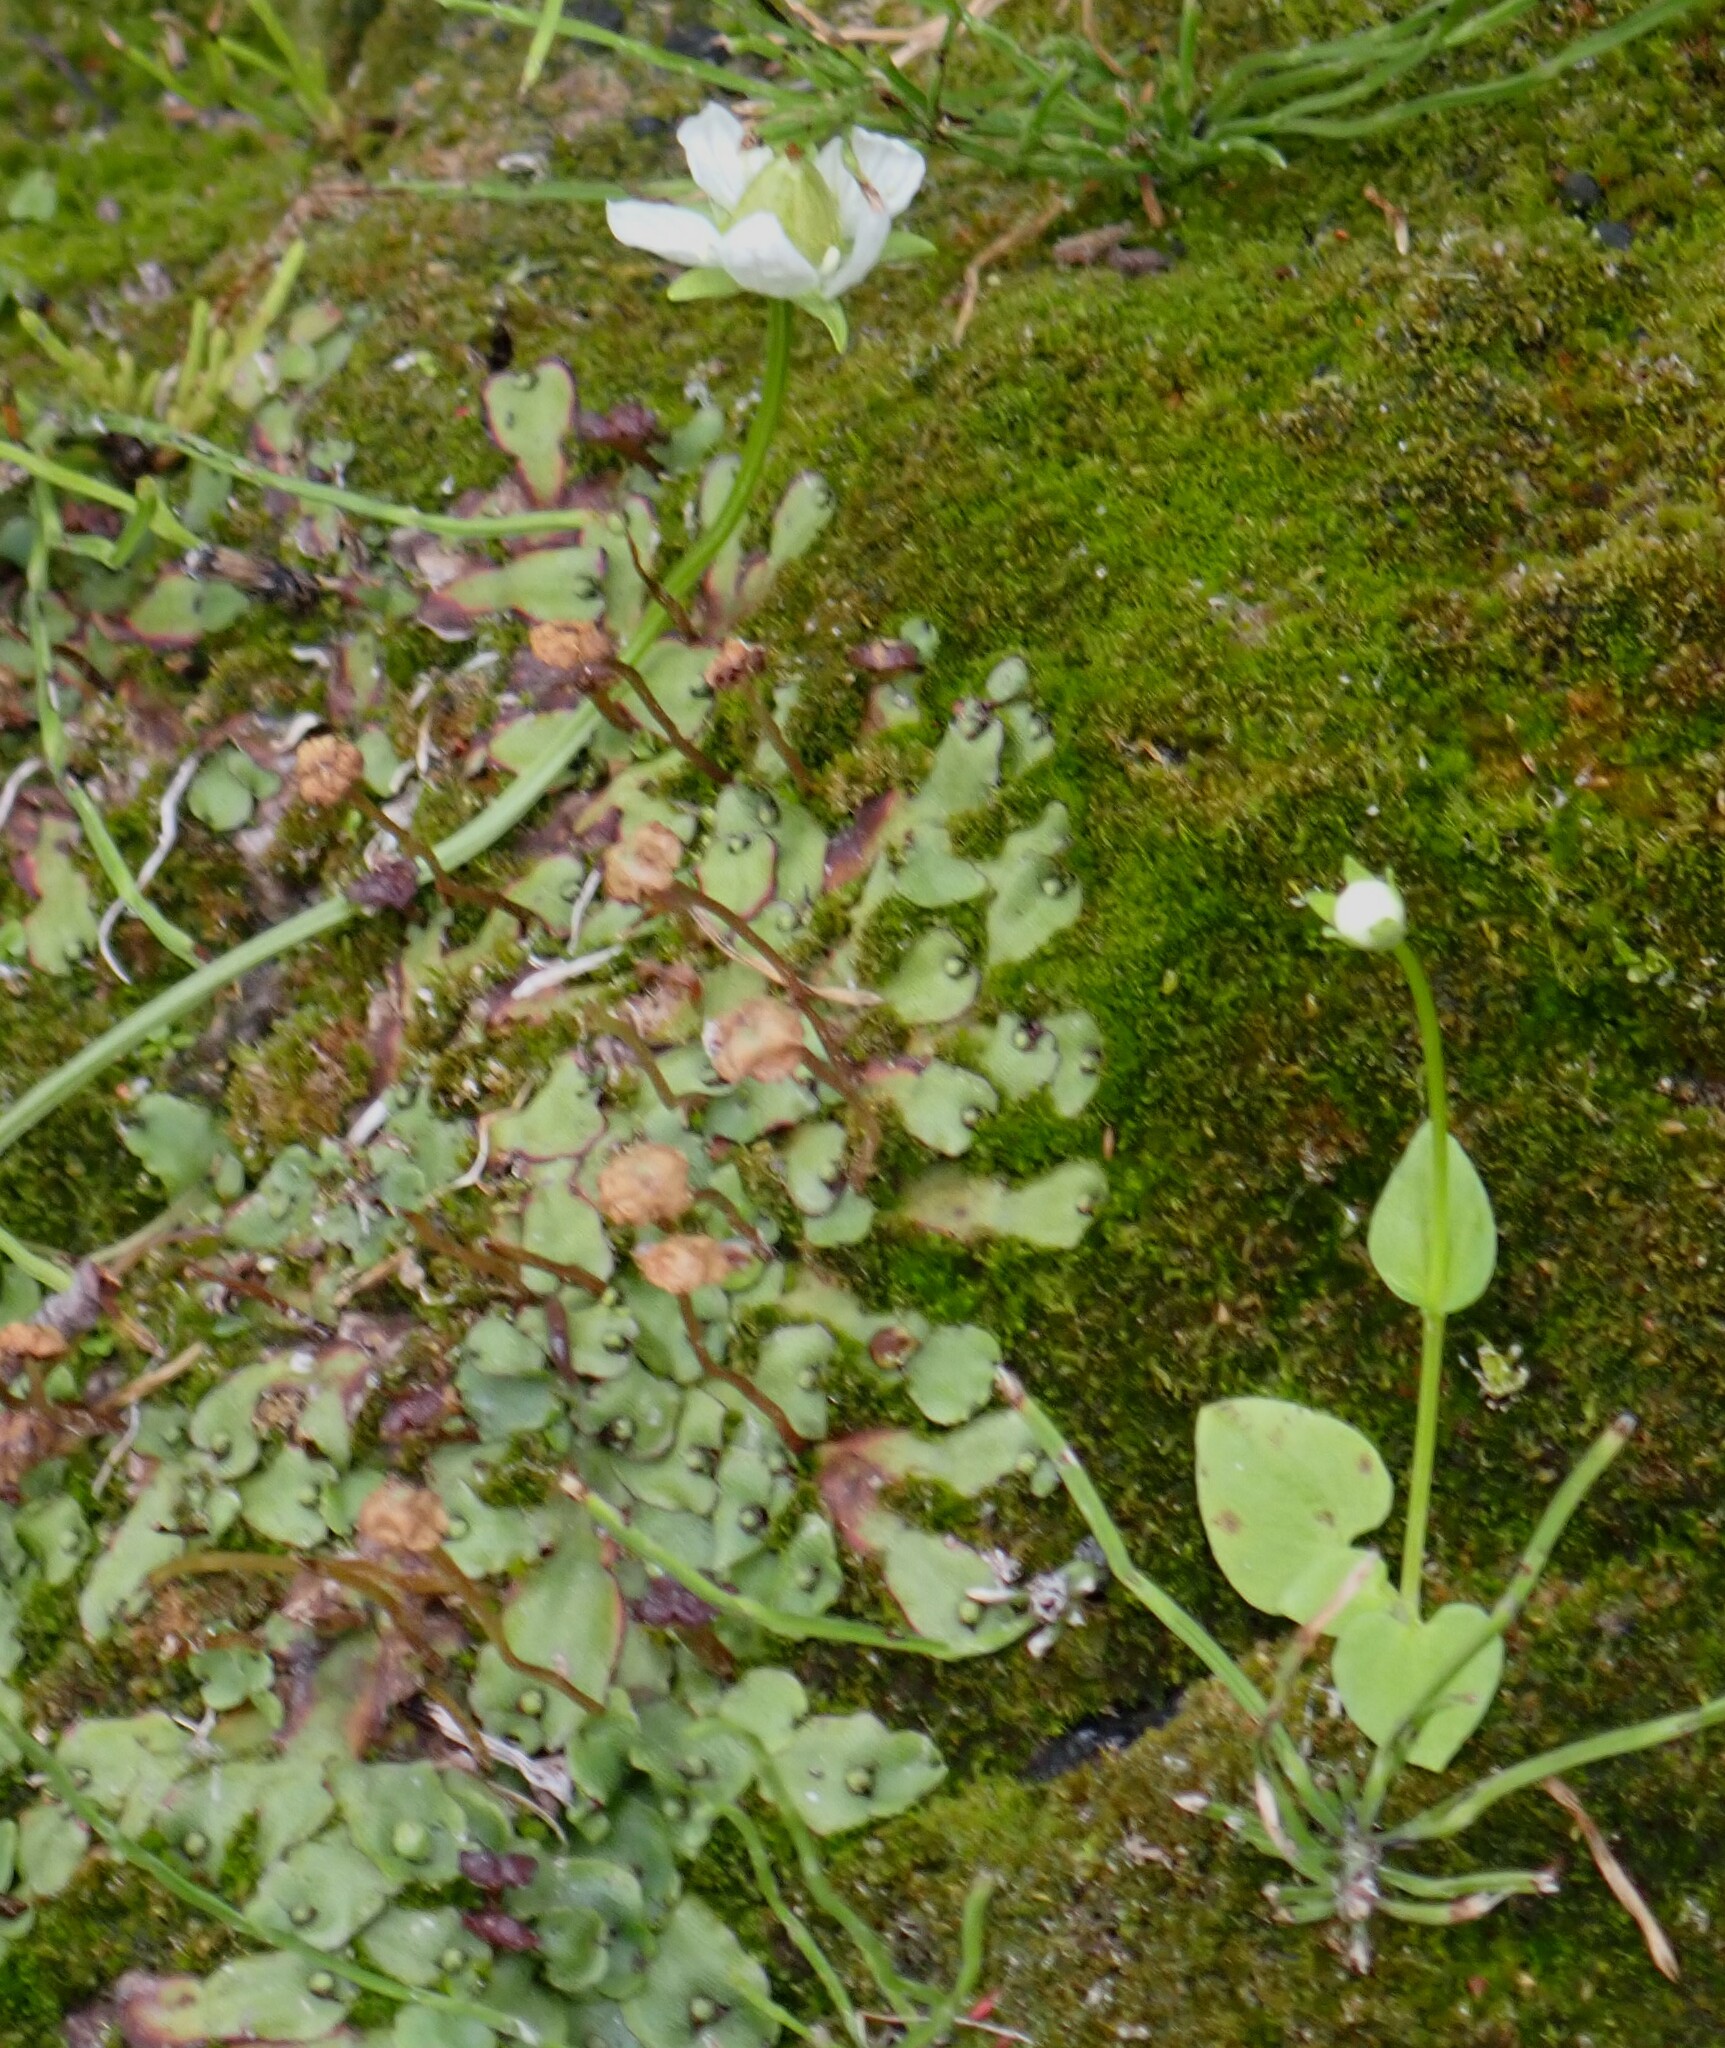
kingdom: Plantae
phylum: Tracheophyta
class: Magnoliopsida
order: Celastrales
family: Parnassiaceae
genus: Parnassia
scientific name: Parnassia palustris
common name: Grass-of-parnassus
